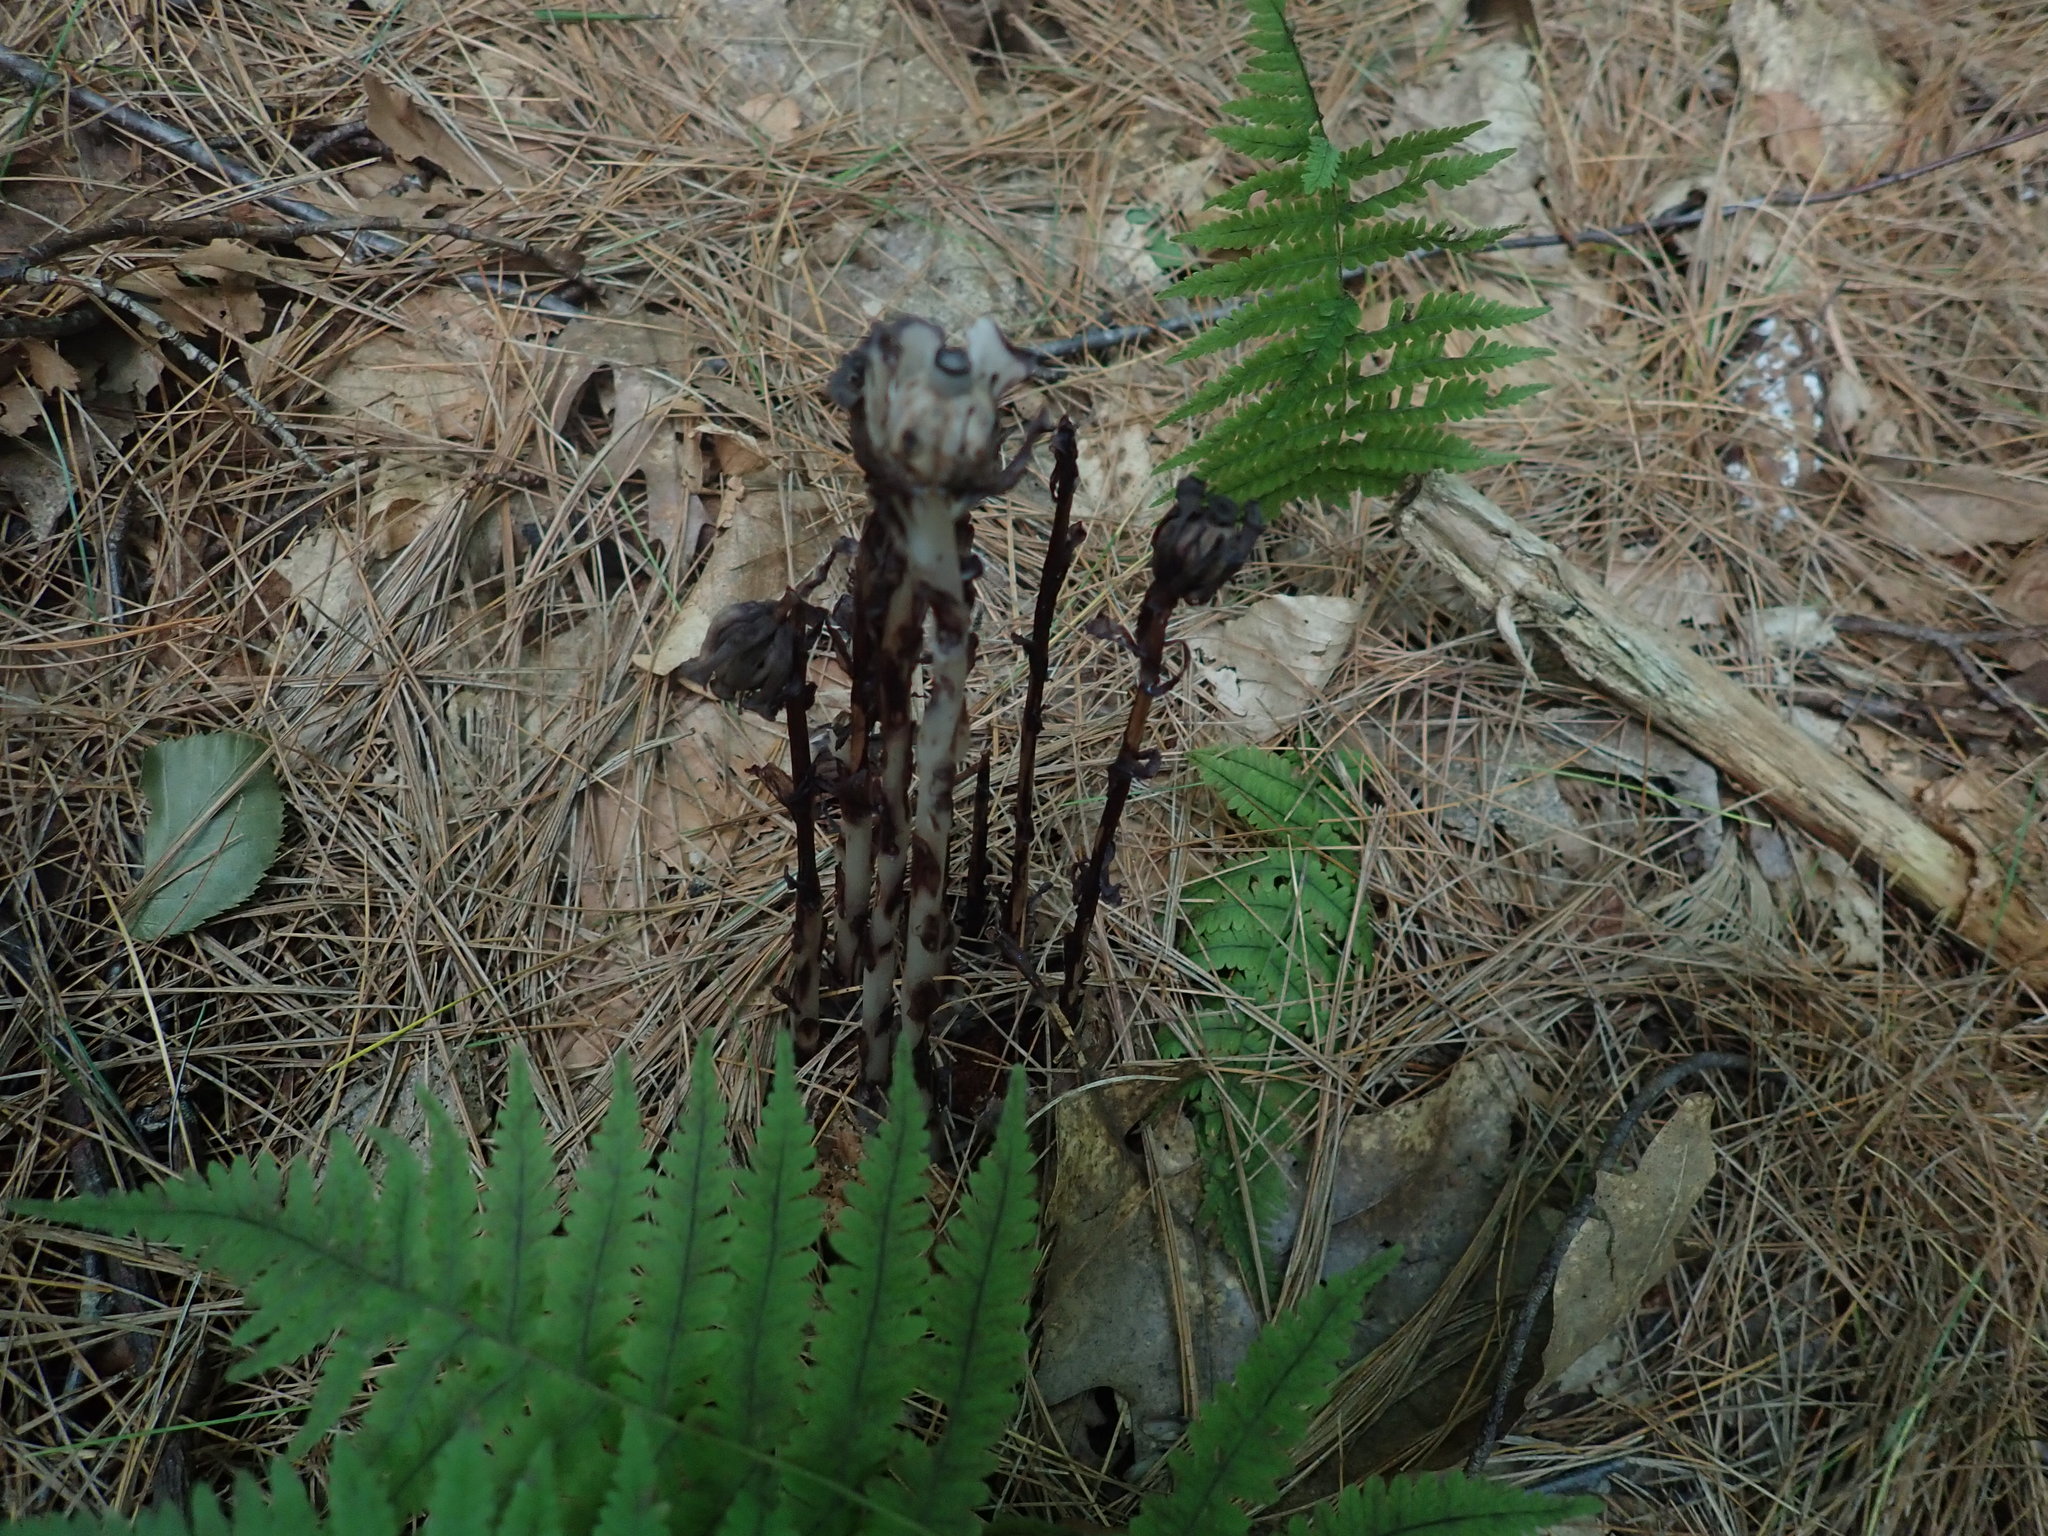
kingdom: Plantae
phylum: Tracheophyta
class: Magnoliopsida
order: Ericales
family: Ericaceae
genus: Monotropa
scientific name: Monotropa uniflora
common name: Convulsion root
